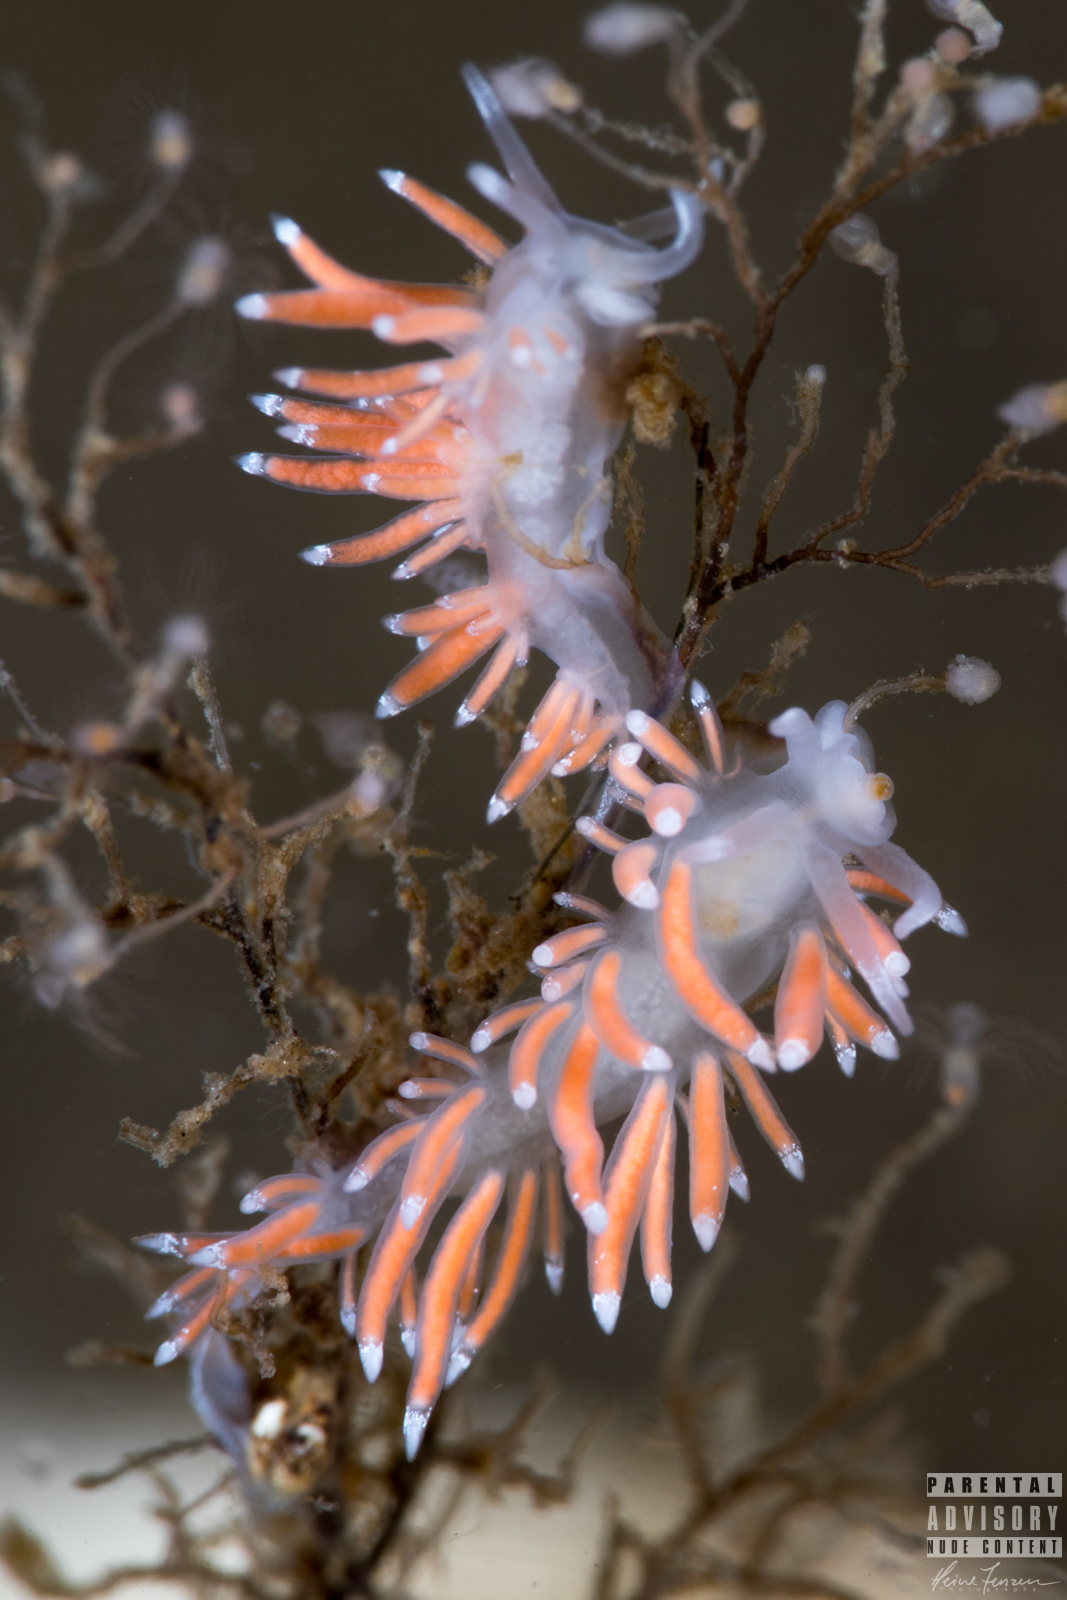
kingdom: Animalia
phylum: Mollusca
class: Gastropoda
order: Nudibranchia
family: Coryphellidae
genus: Coryphella
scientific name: Coryphella gracilis
